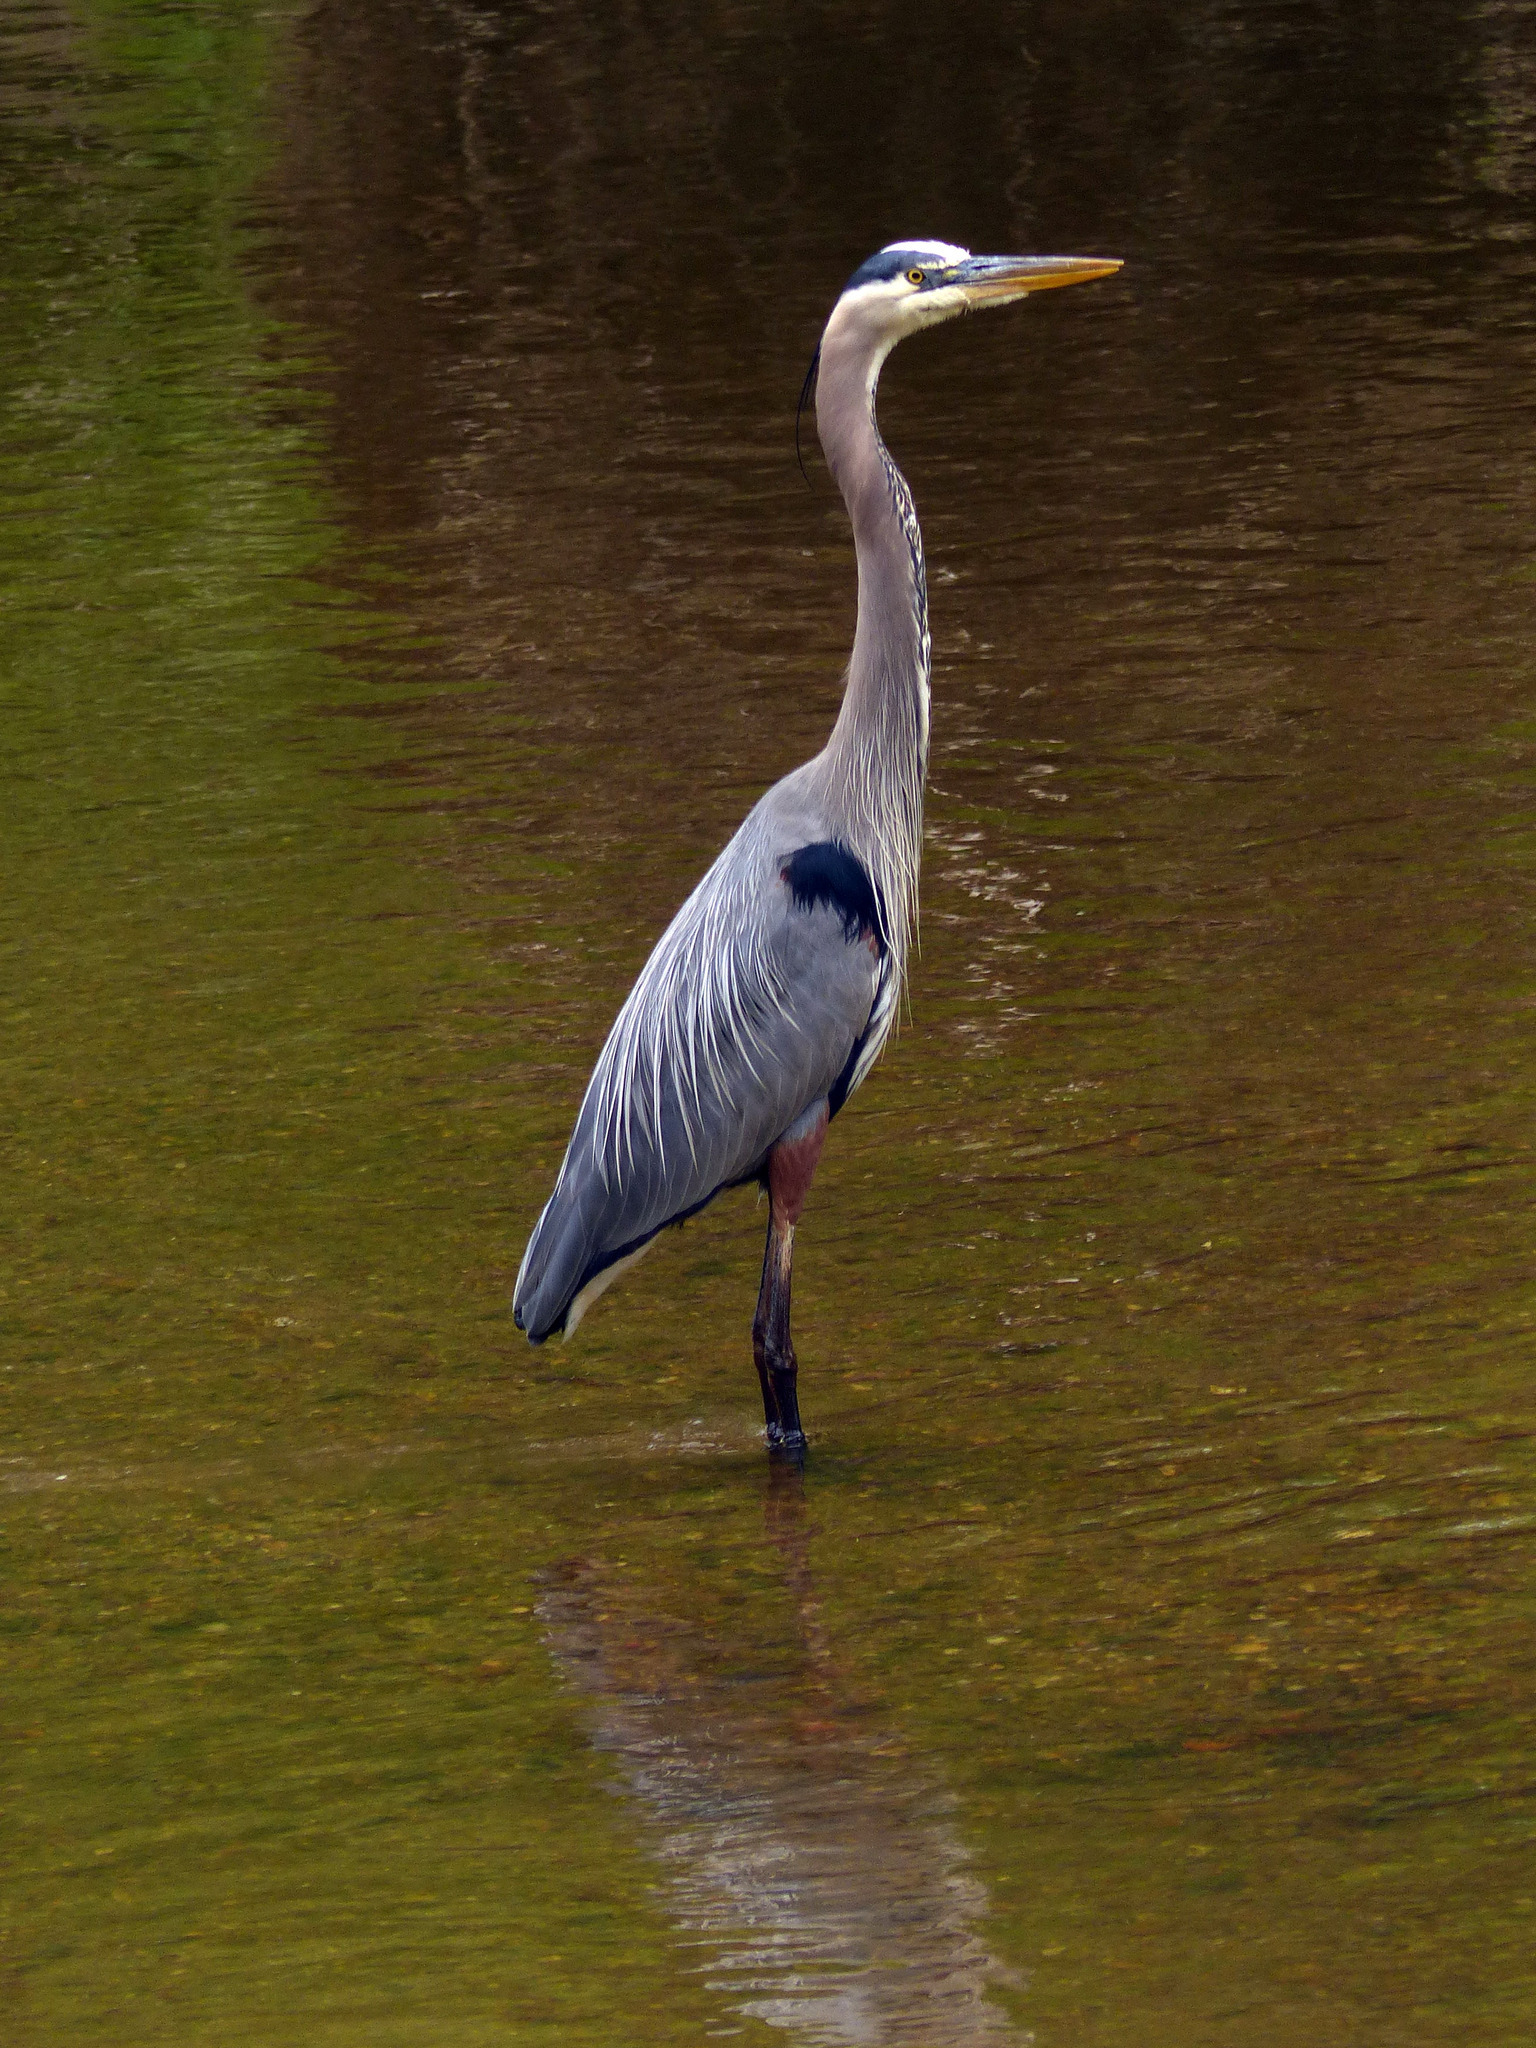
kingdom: Animalia
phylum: Chordata
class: Aves
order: Pelecaniformes
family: Ardeidae
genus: Ardea
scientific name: Ardea herodias
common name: Great blue heron
